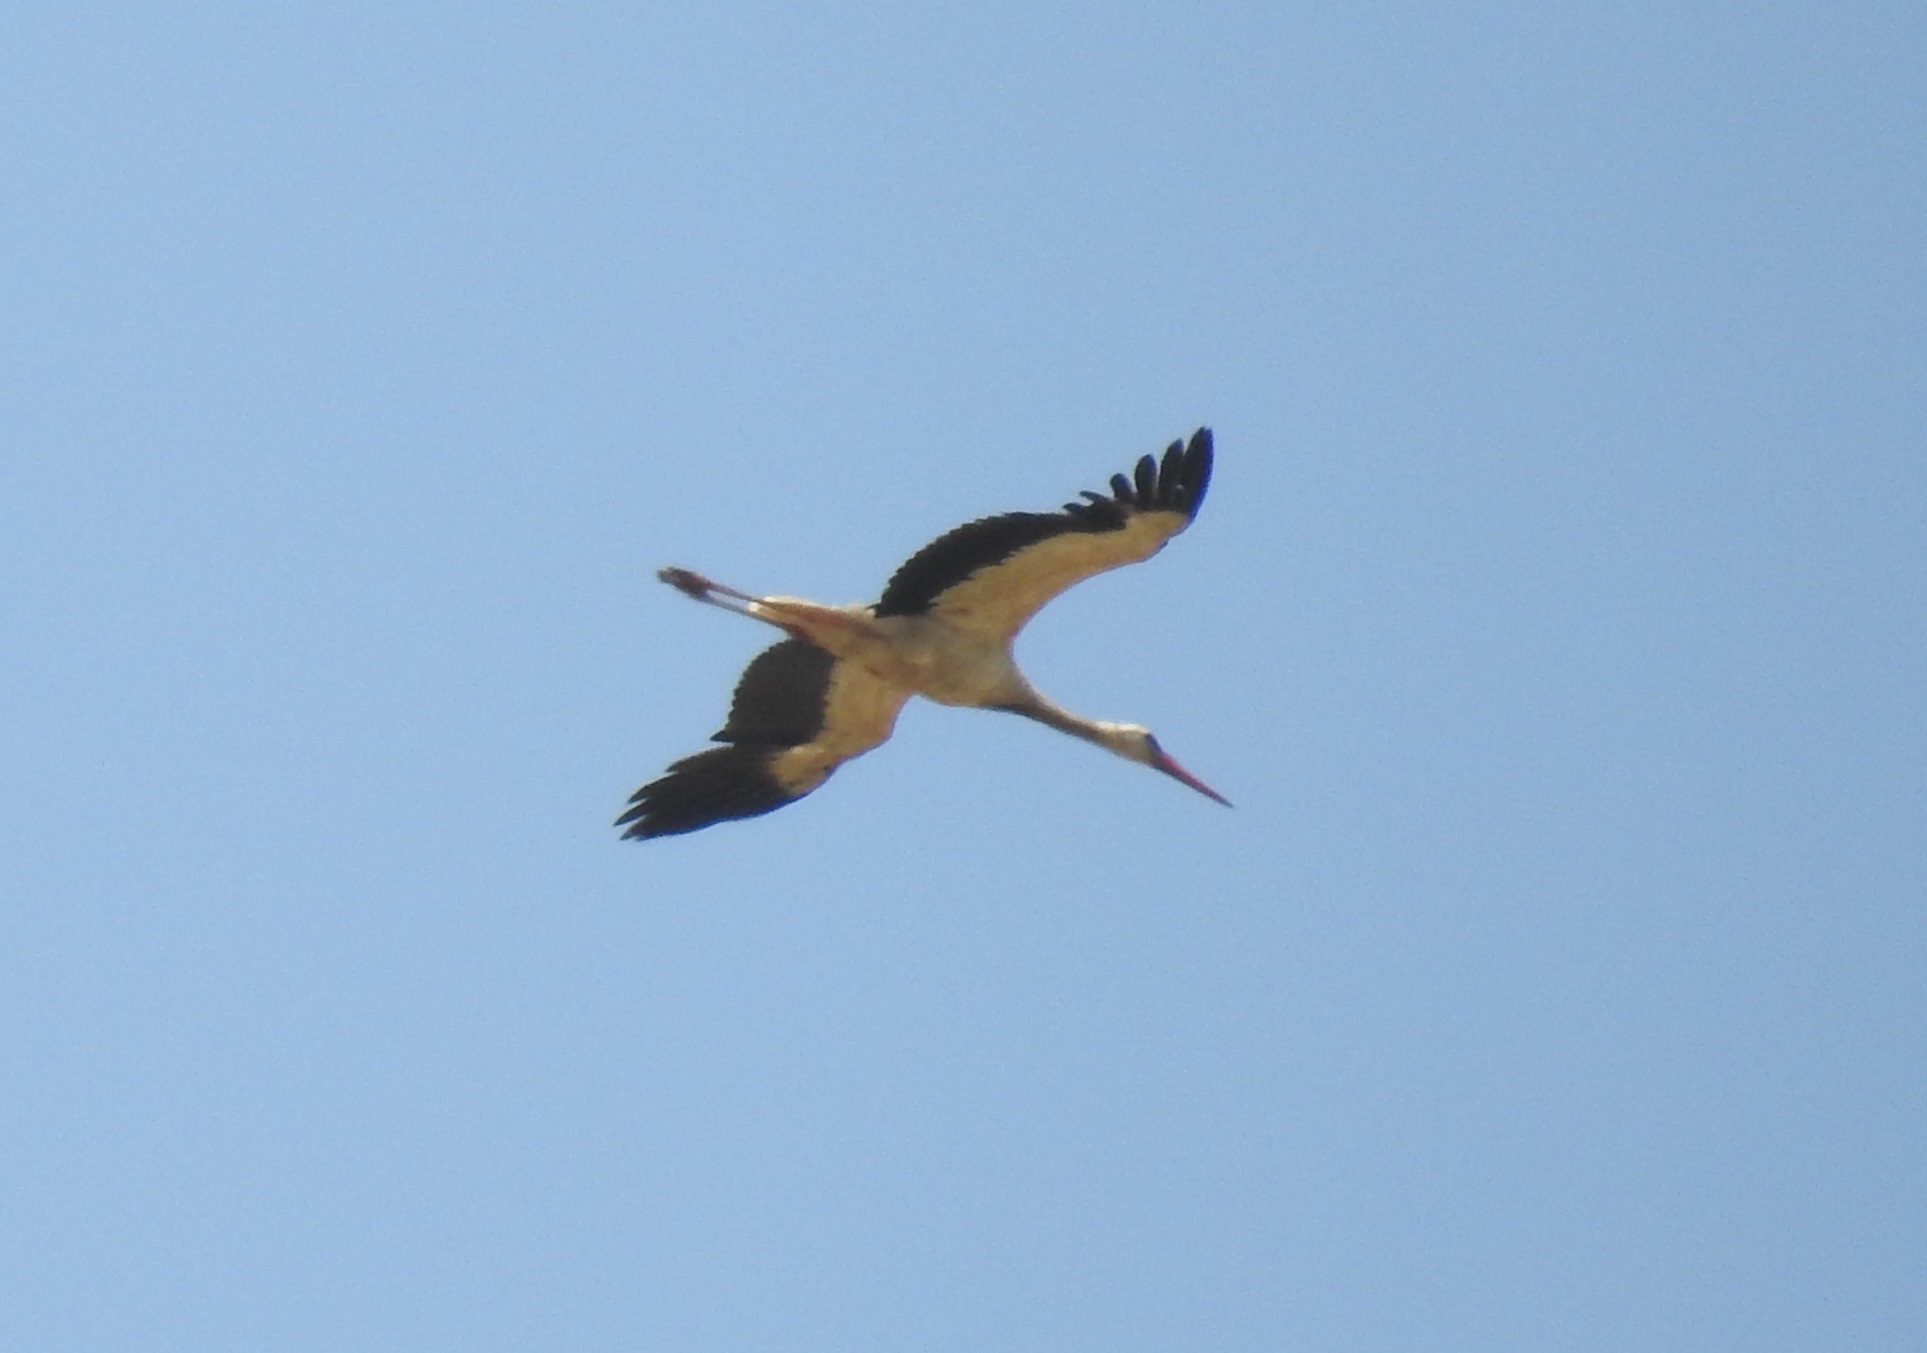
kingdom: Animalia
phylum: Chordata
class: Aves
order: Ciconiiformes
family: Ciconiidae
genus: Ciconia
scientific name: Ciconia ciconia
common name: White stork
